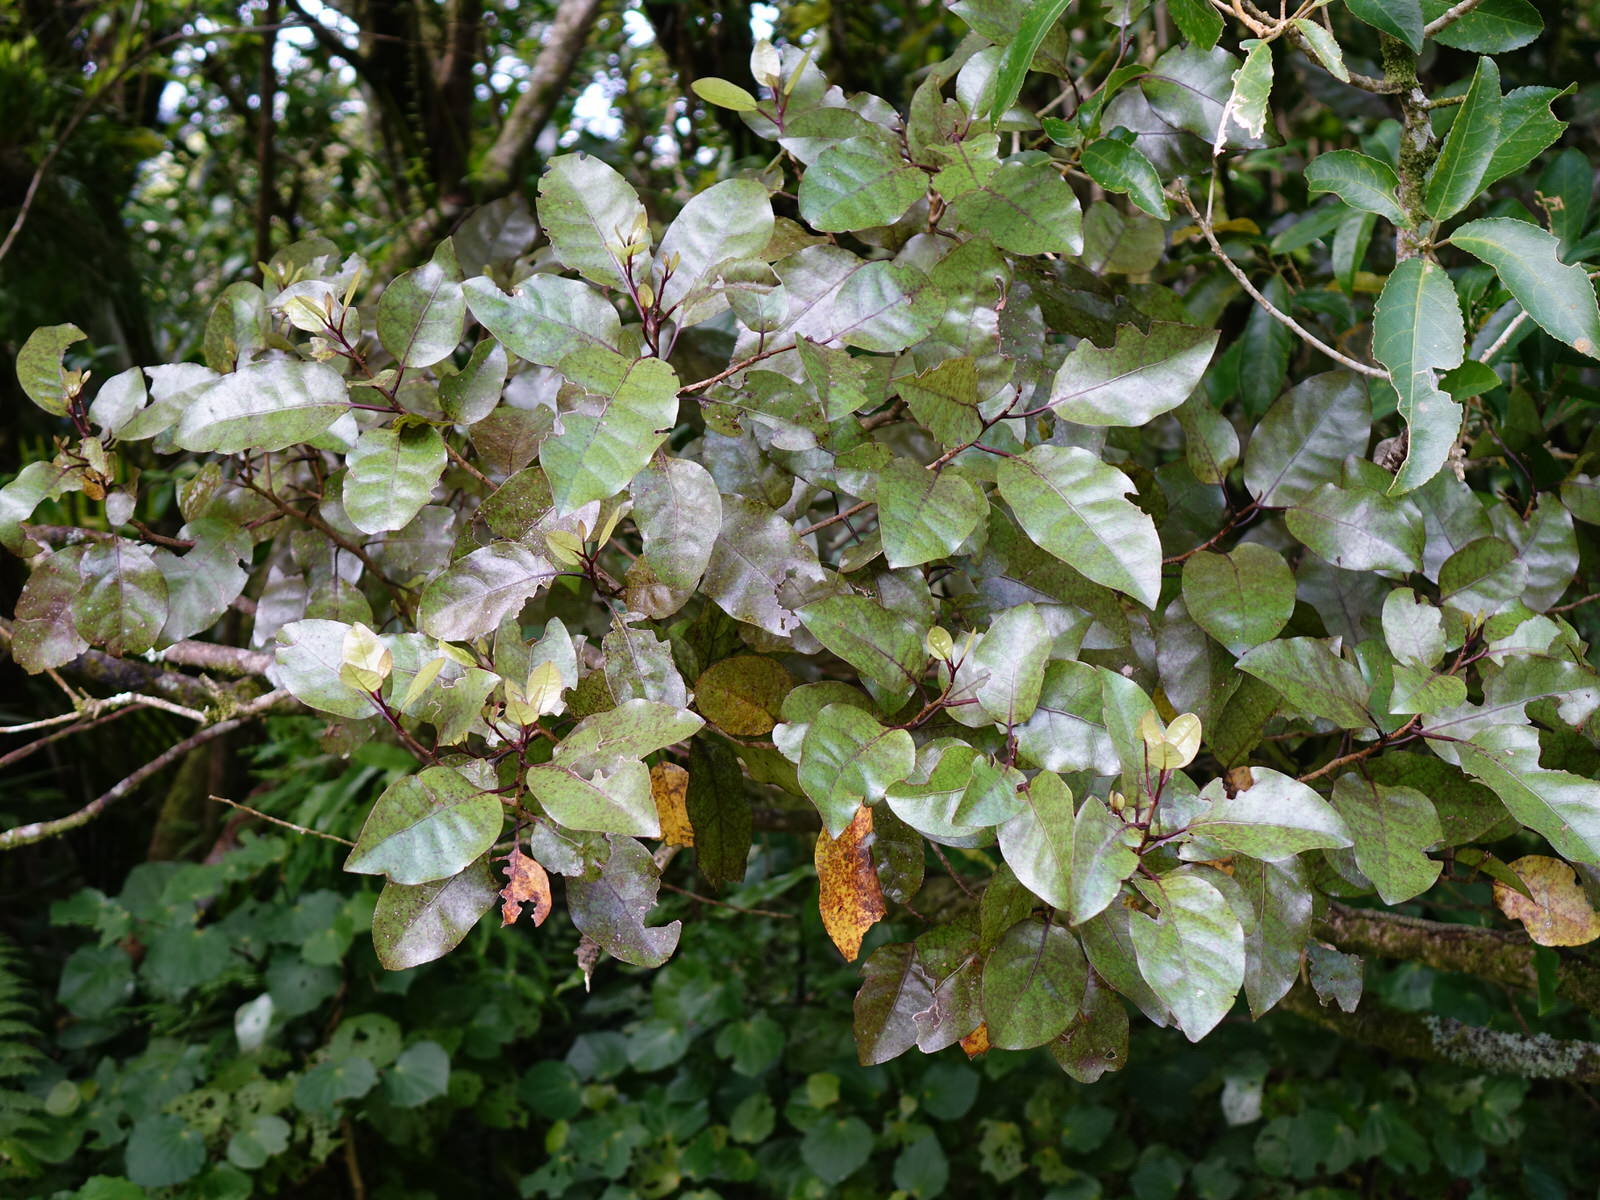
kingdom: Plantae
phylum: Tracheophyta
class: Magnoliopsida
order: Laurales
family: Lauraceae
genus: Litsea
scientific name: Litsea calicaris
